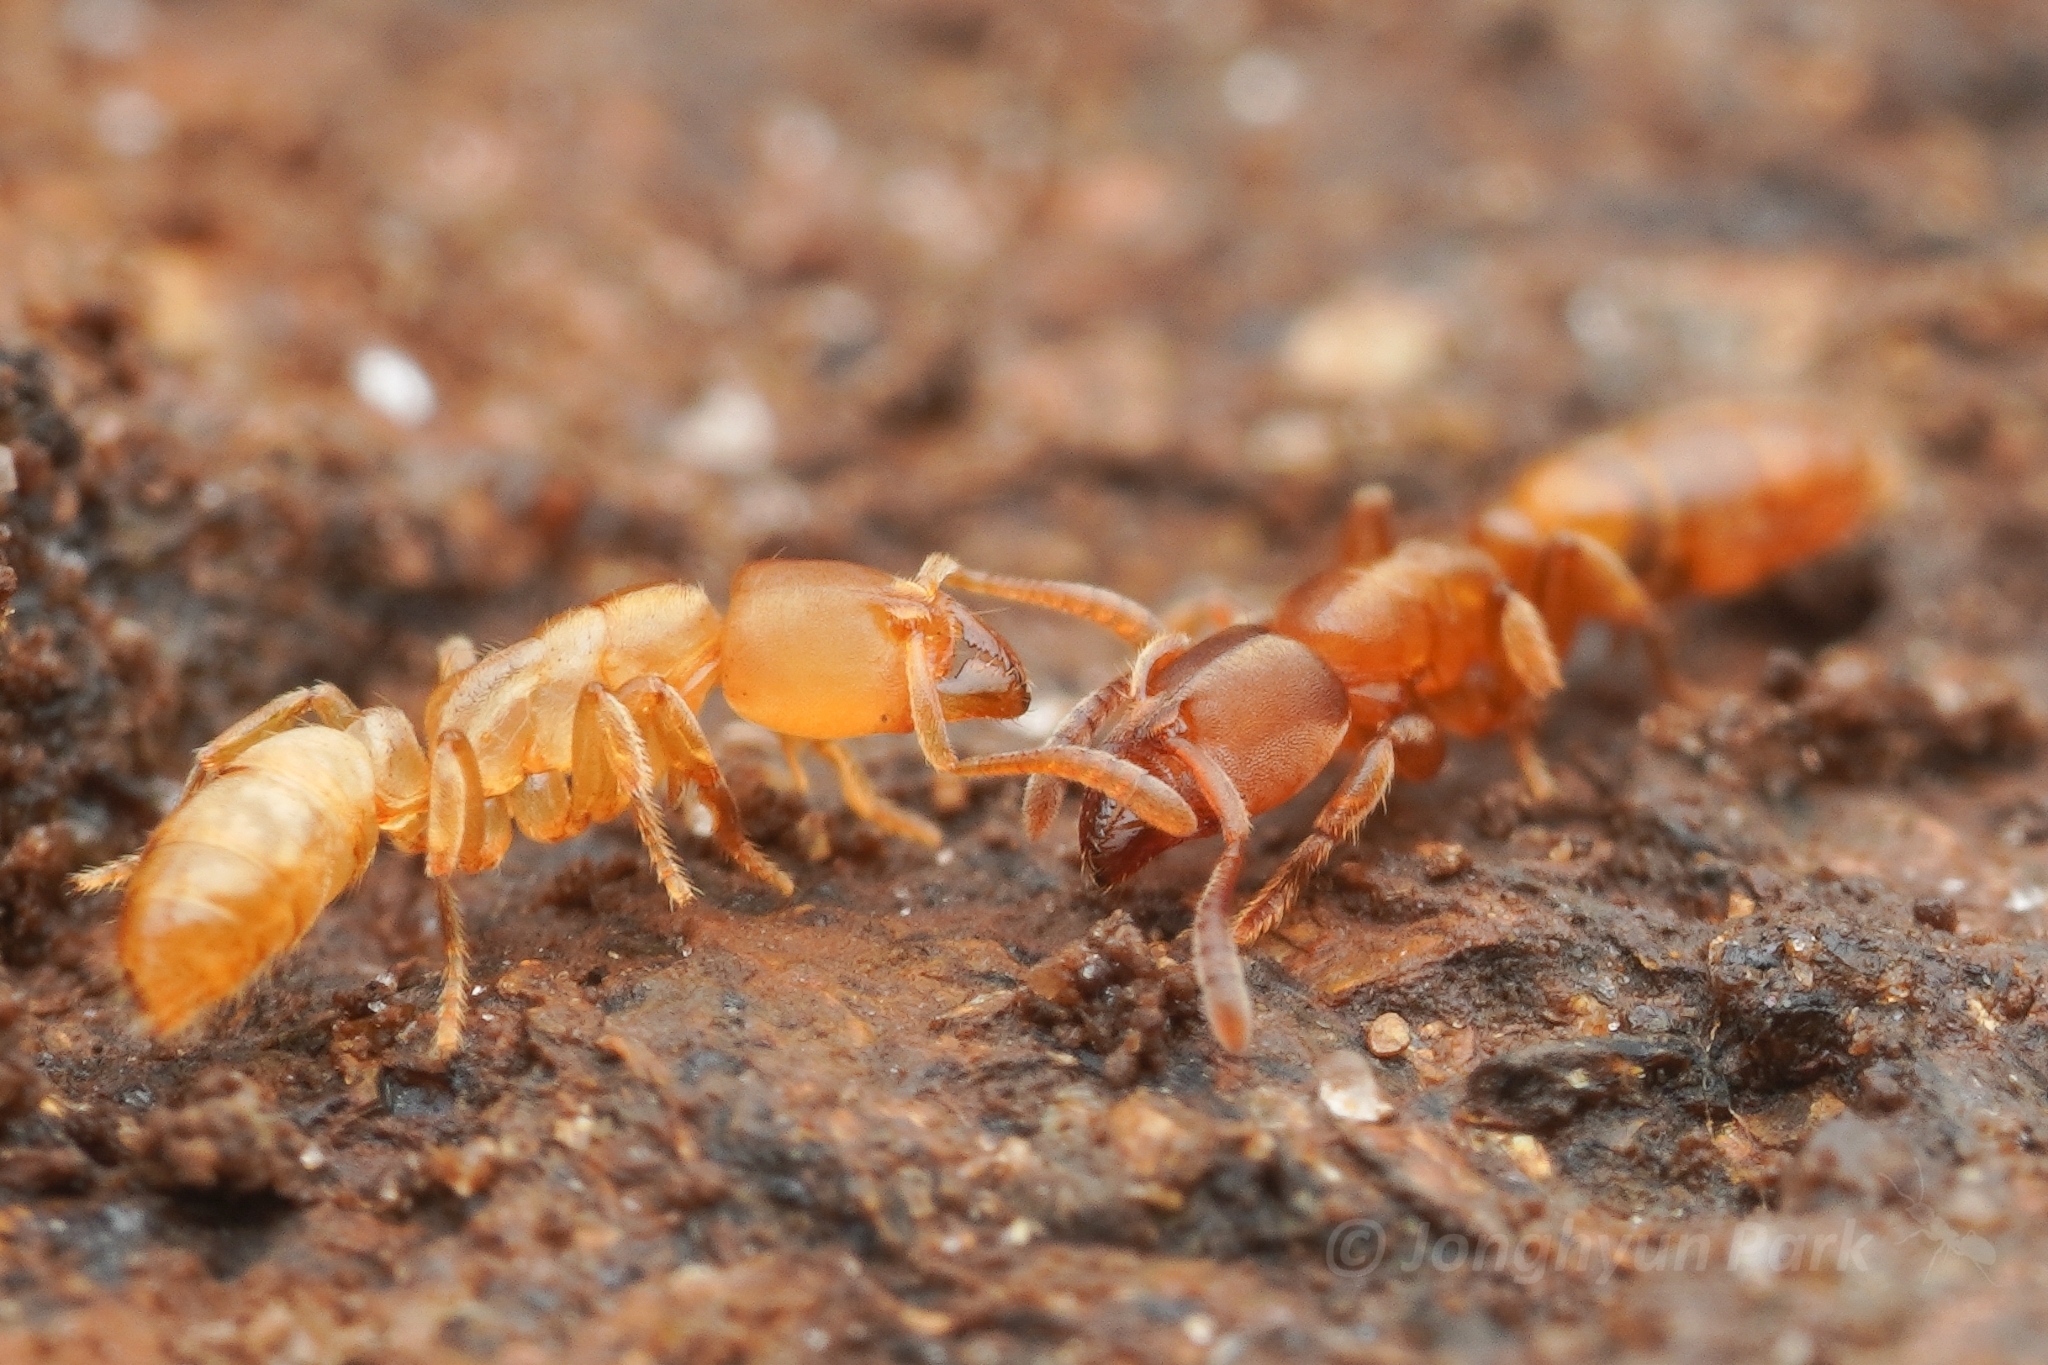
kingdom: Animalia
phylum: Arthropoda
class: Insecta
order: Hymenoptera
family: Formicidae
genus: Cryptopone
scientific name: Cryptopone sauteri
